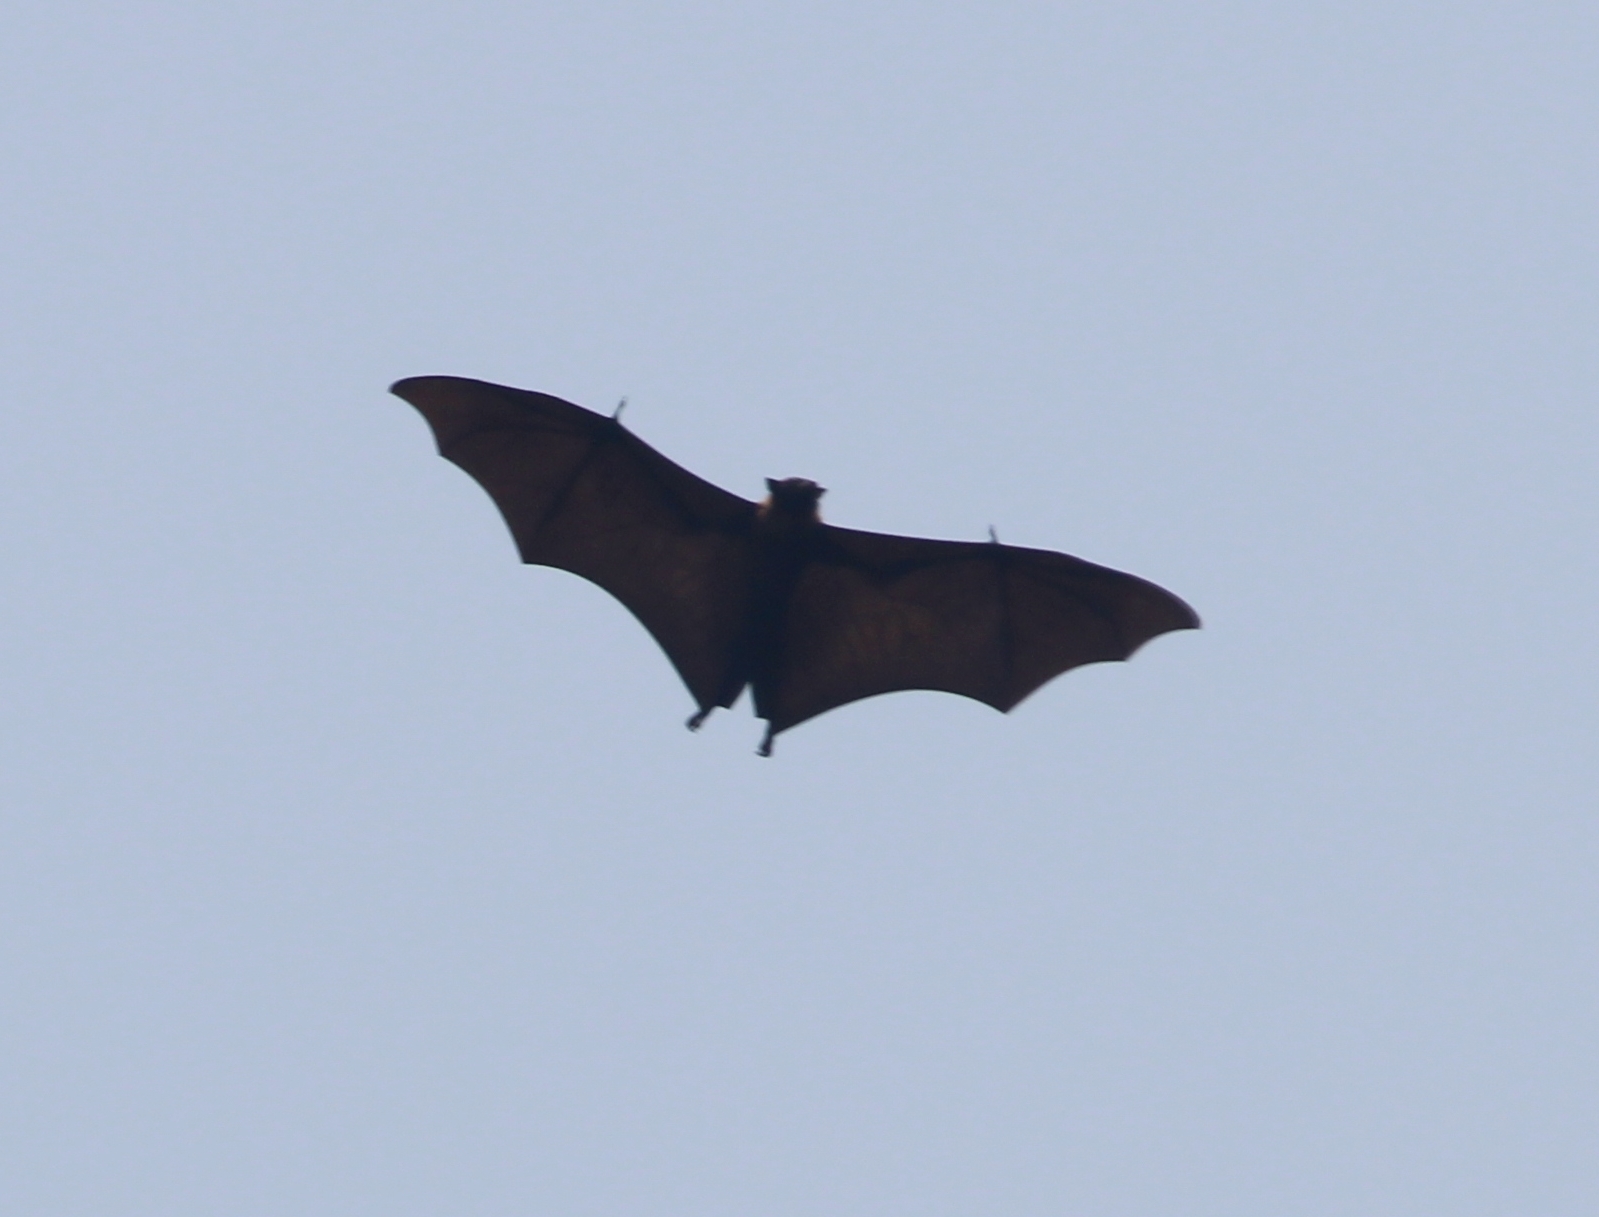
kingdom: Animalia
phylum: Chordata
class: Mammalia
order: Chiroptera
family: Pteropodidae
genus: Pteropus
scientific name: Pteropus vampyrus
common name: Large flying fox
